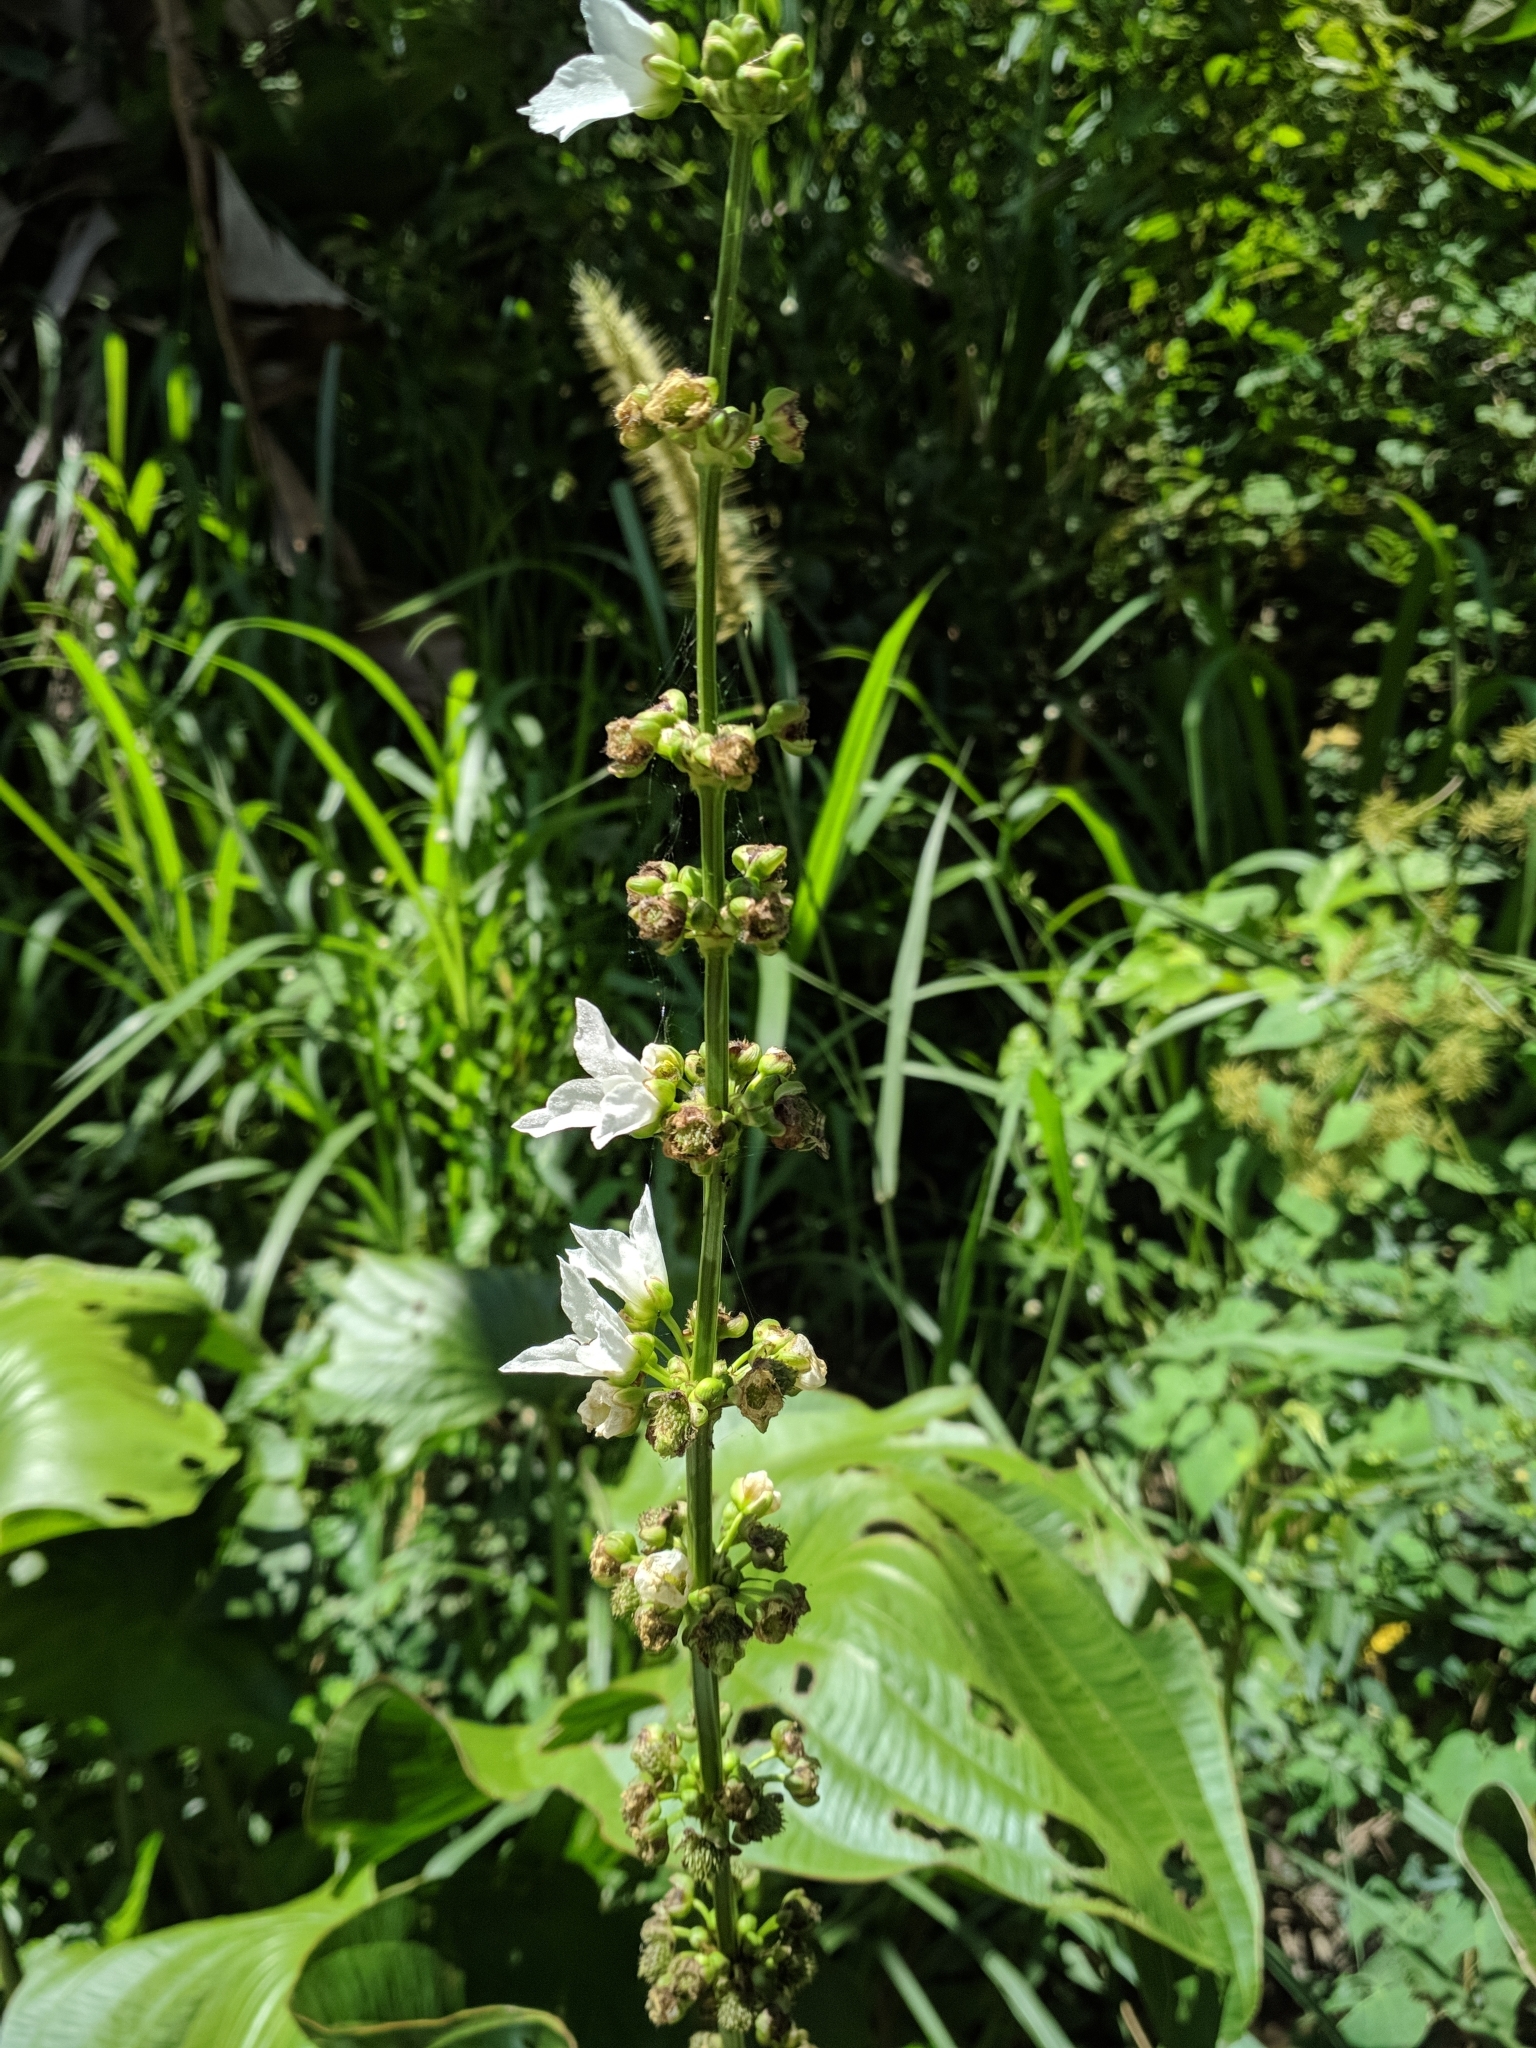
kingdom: Plantae
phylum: Tracheophyta
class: Liliopsida
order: Alismatales
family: Alismataceae
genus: Aquarius
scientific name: Aquarius palifolius
